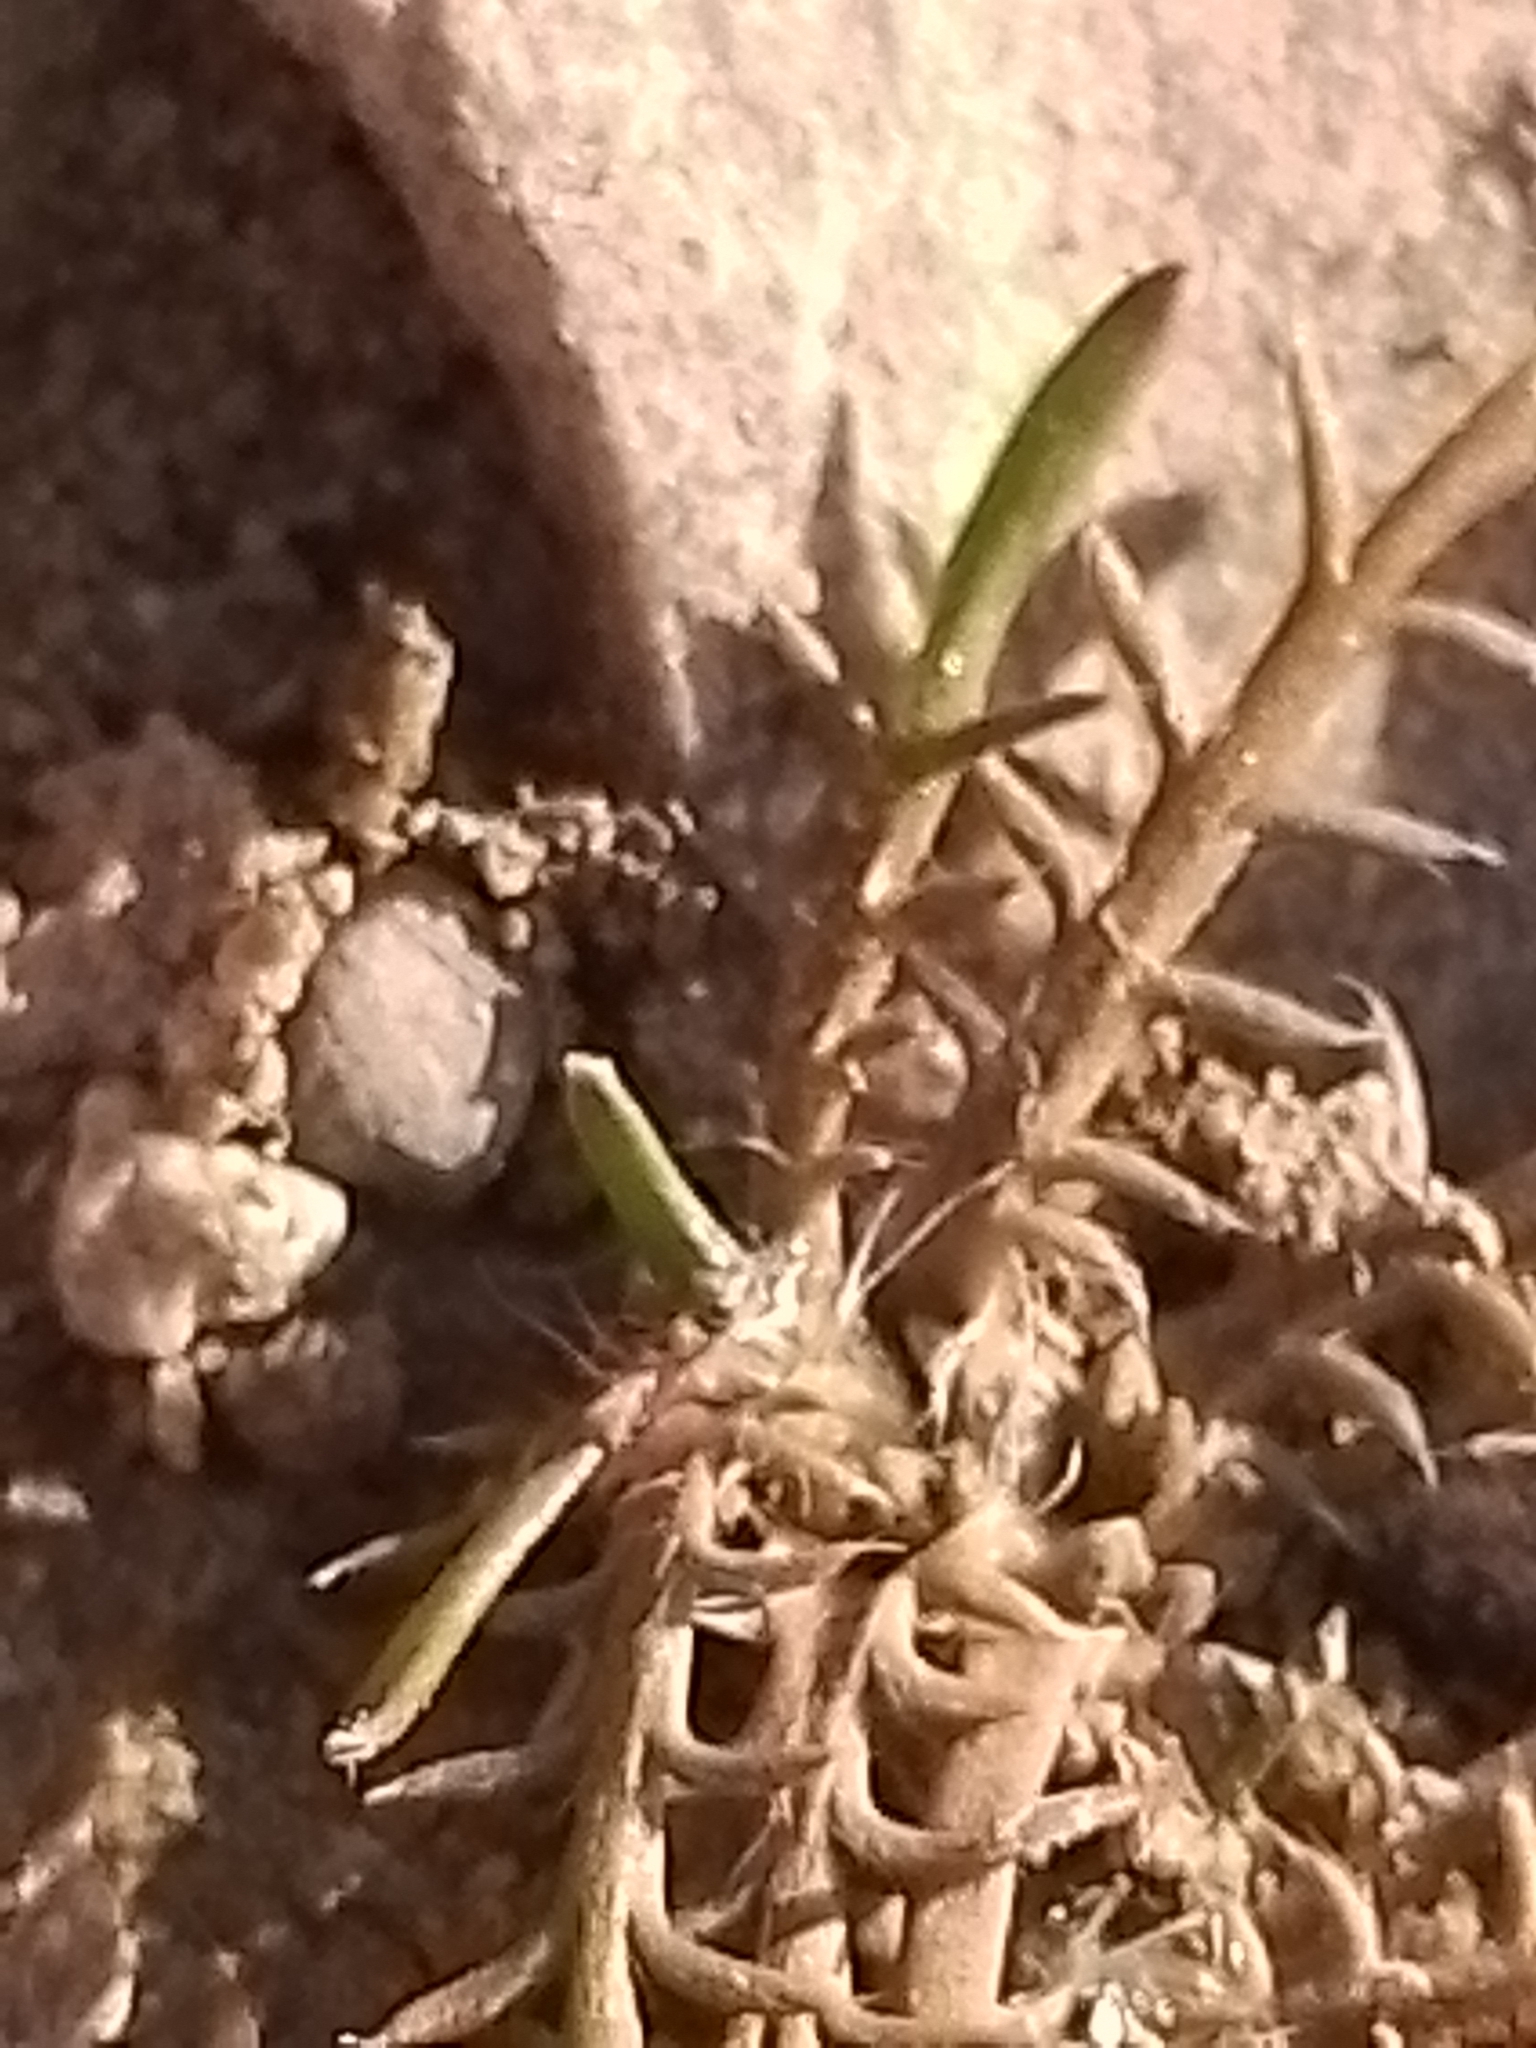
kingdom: Plantae
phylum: Tracheophyta
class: Magnoliopsida
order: Asterales
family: Asteraceae
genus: Leptinella
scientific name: Leptinella maniototo
